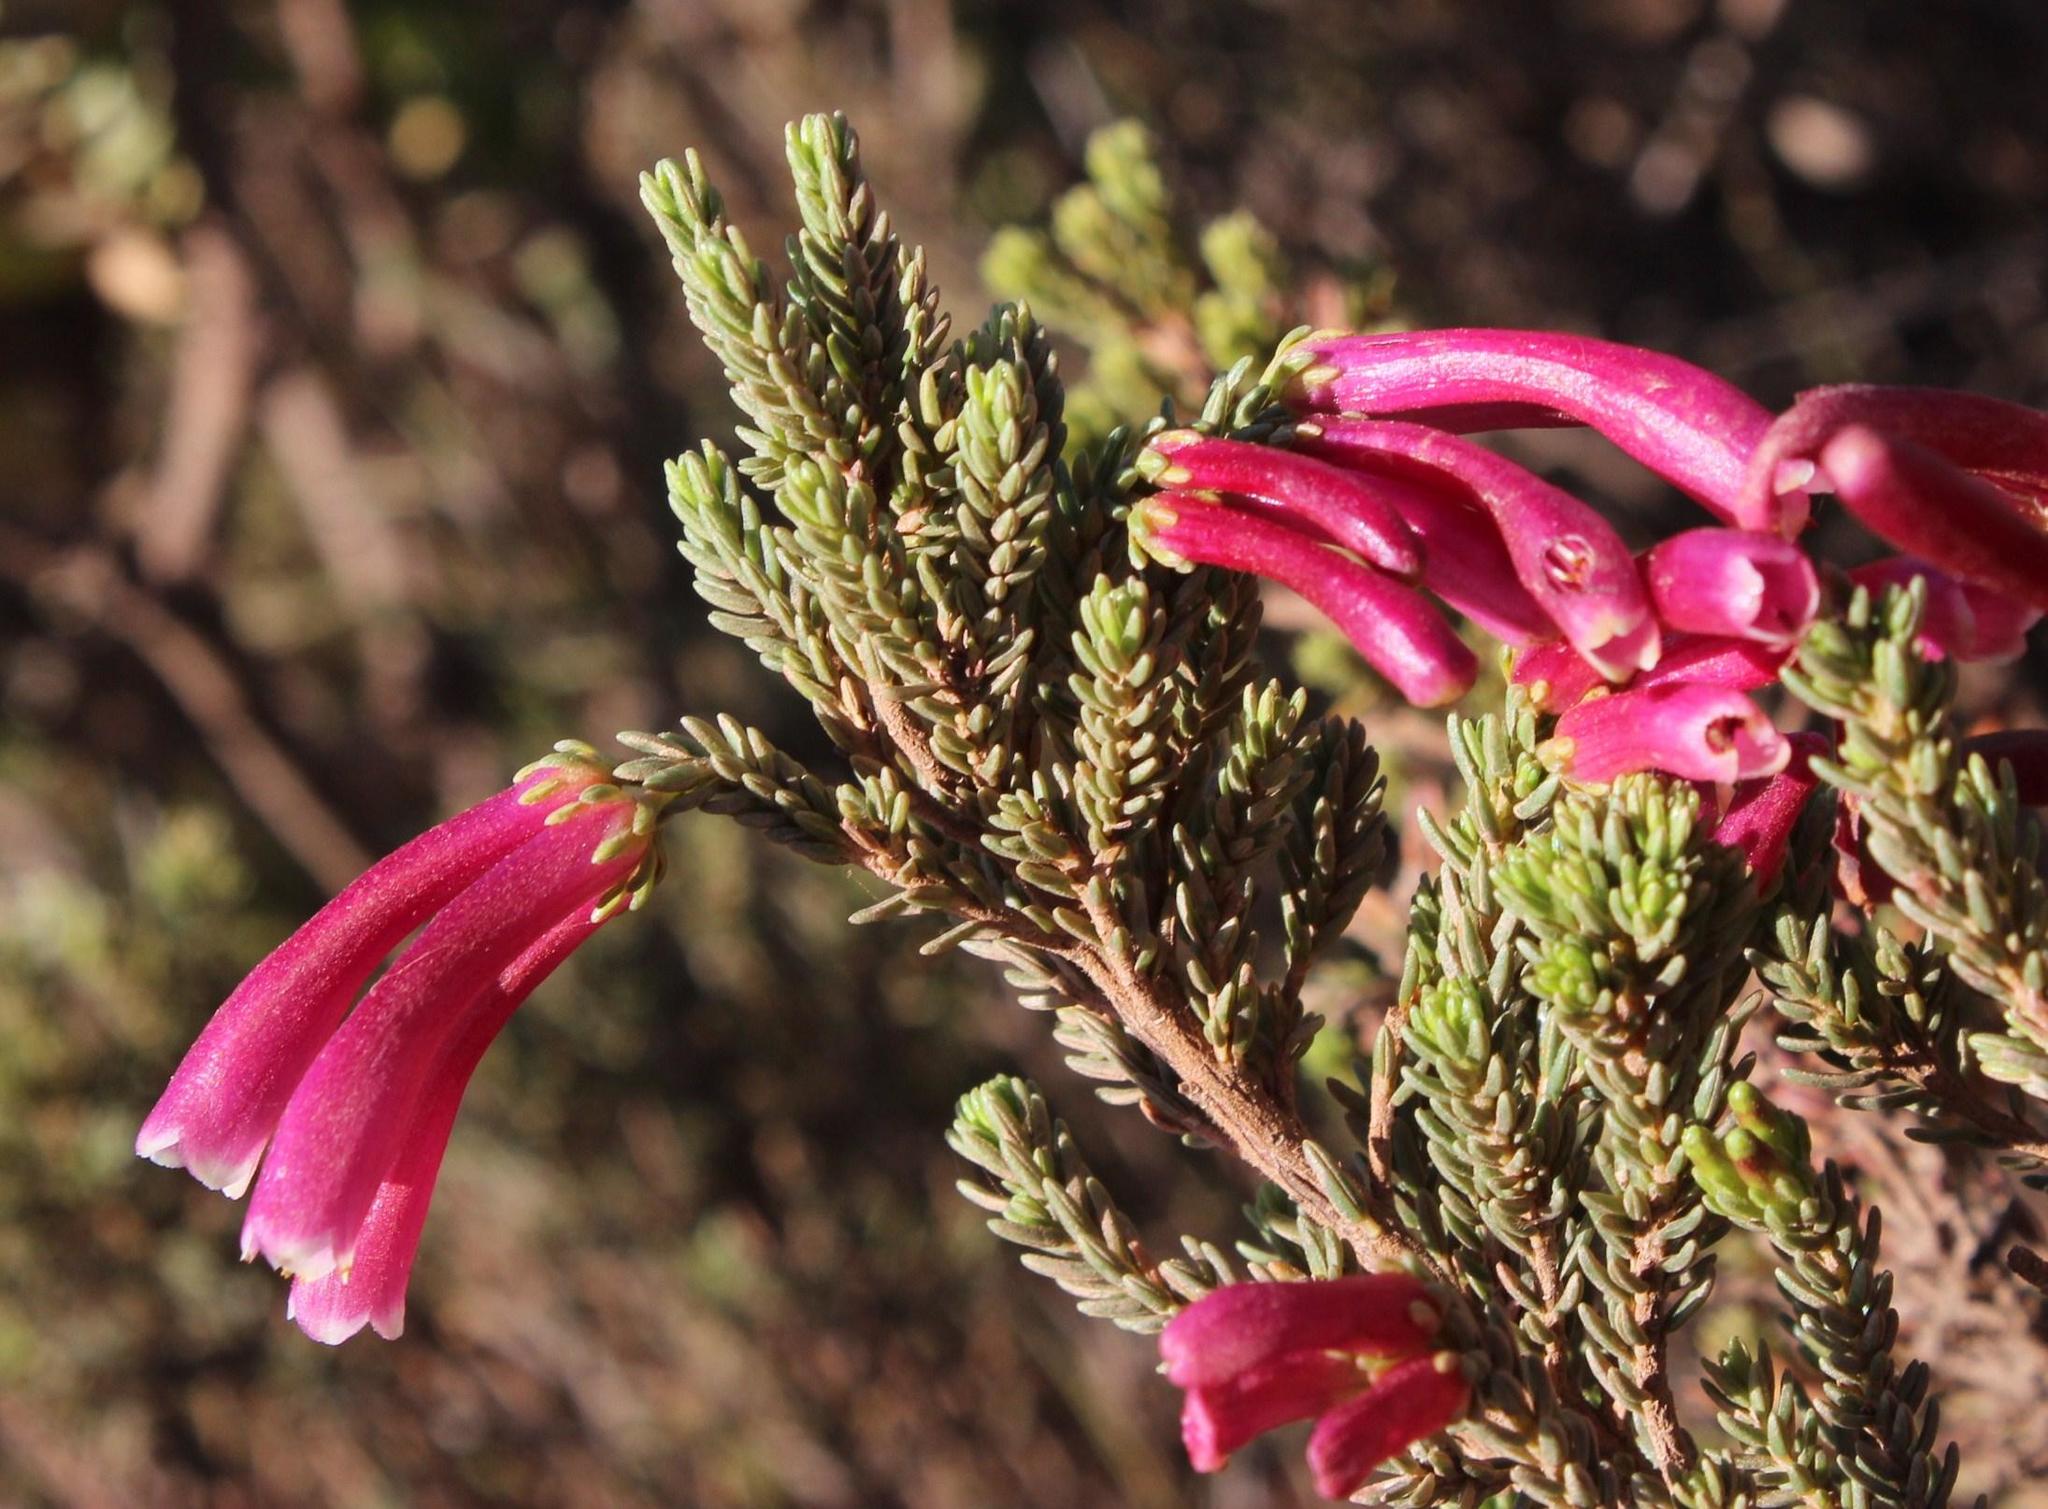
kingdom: Plantae
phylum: Tracheophyta
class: Magnoliopsida
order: Ericales
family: Ericaceae
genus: Erica
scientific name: Erica discolor
